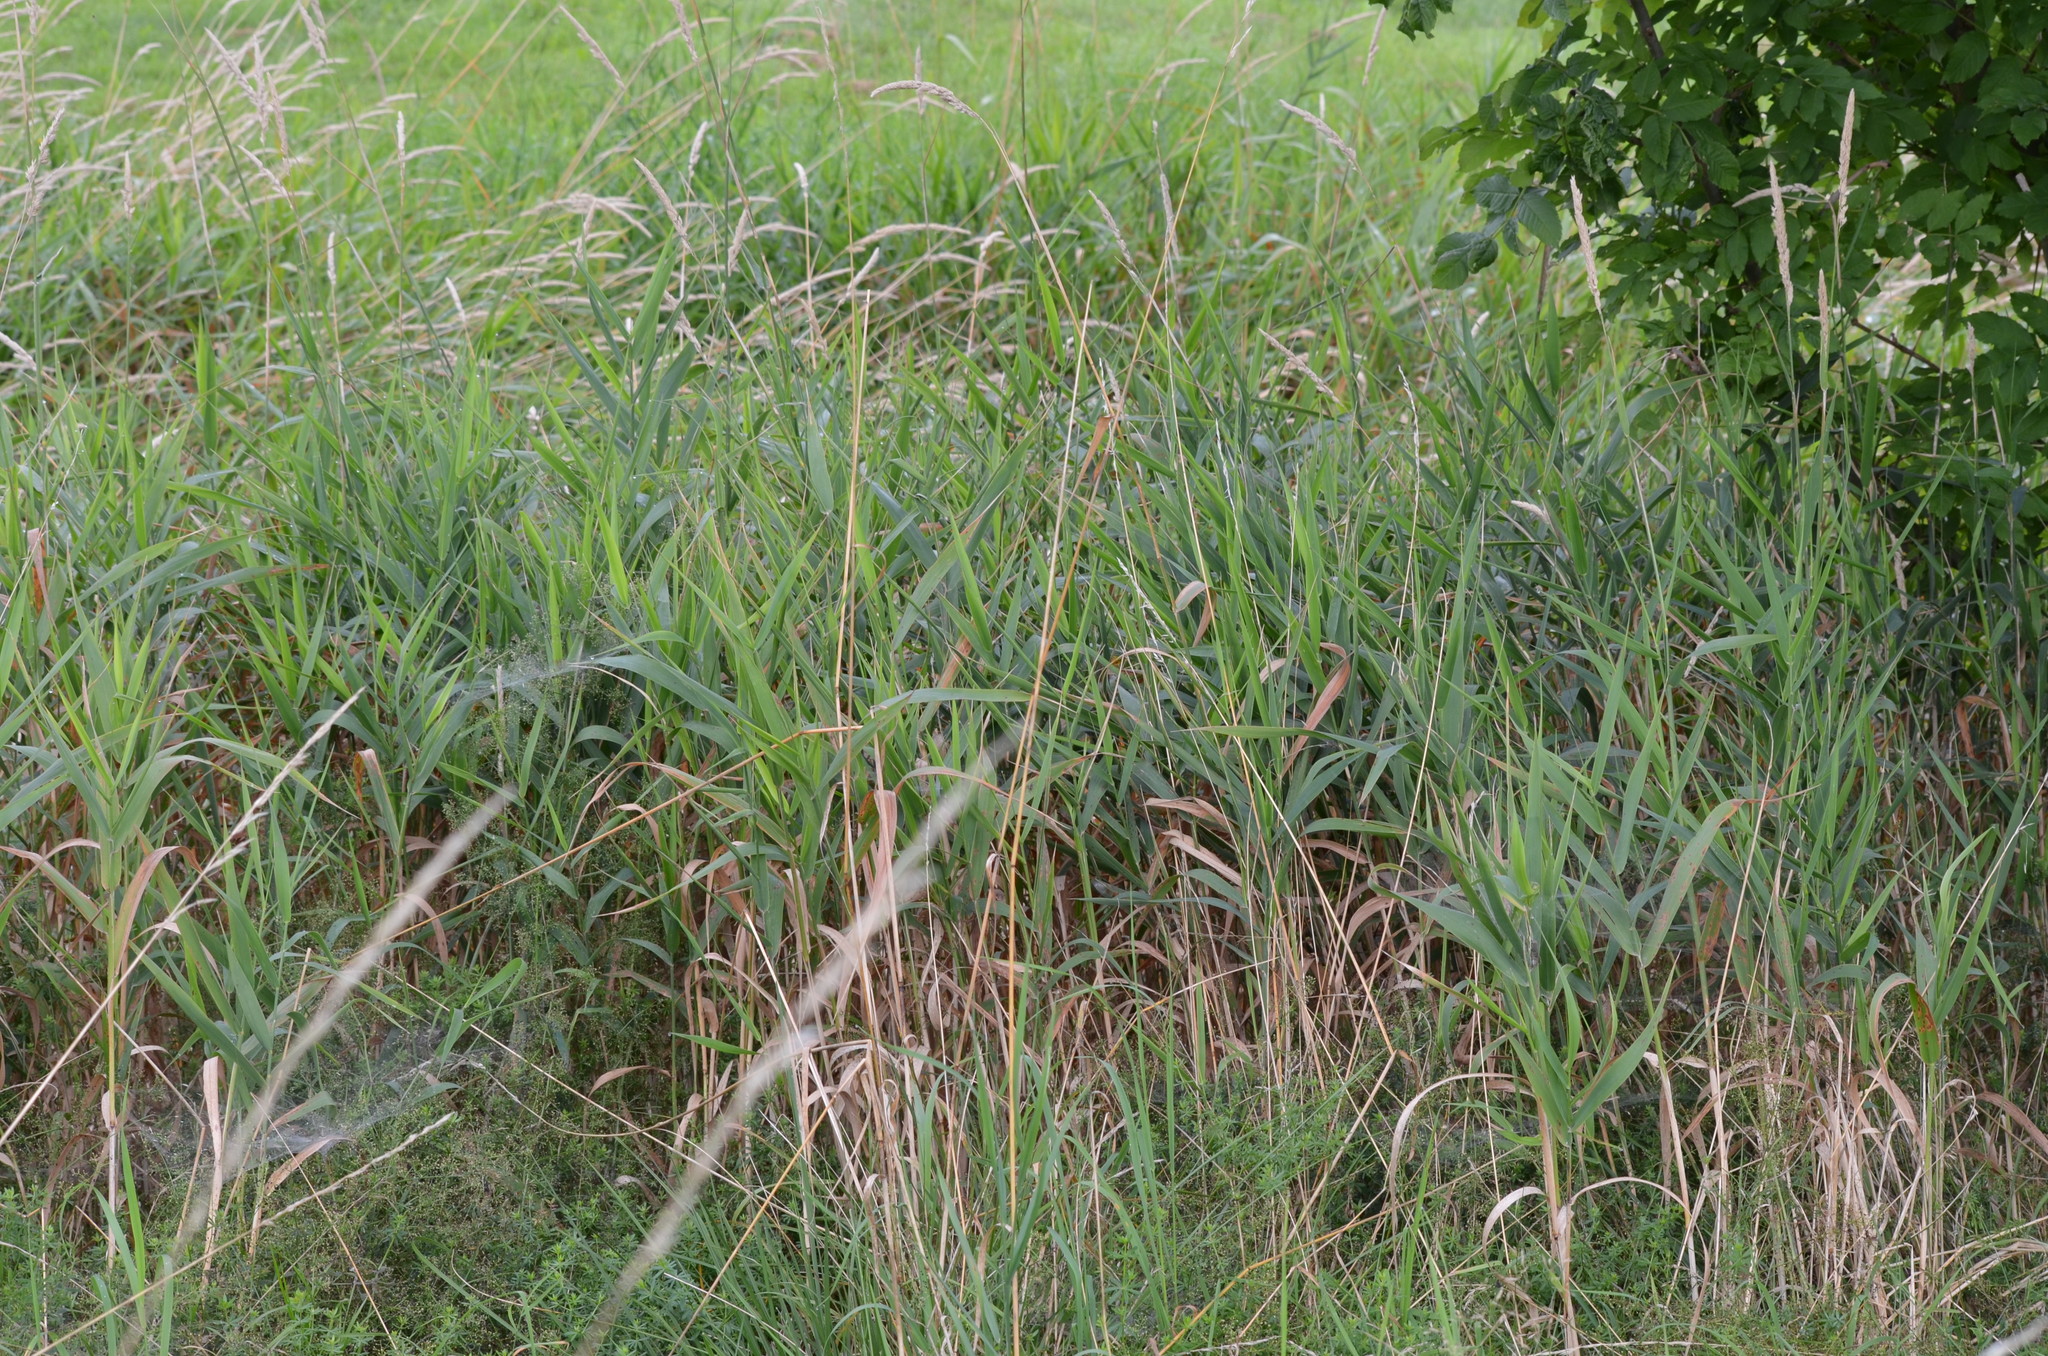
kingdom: Plantae
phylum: Tracheophyta
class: Liliopsida
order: Poales
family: Poaceae
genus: Phalaris
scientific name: Phalaris arundinacea
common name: Reed canary-grass
